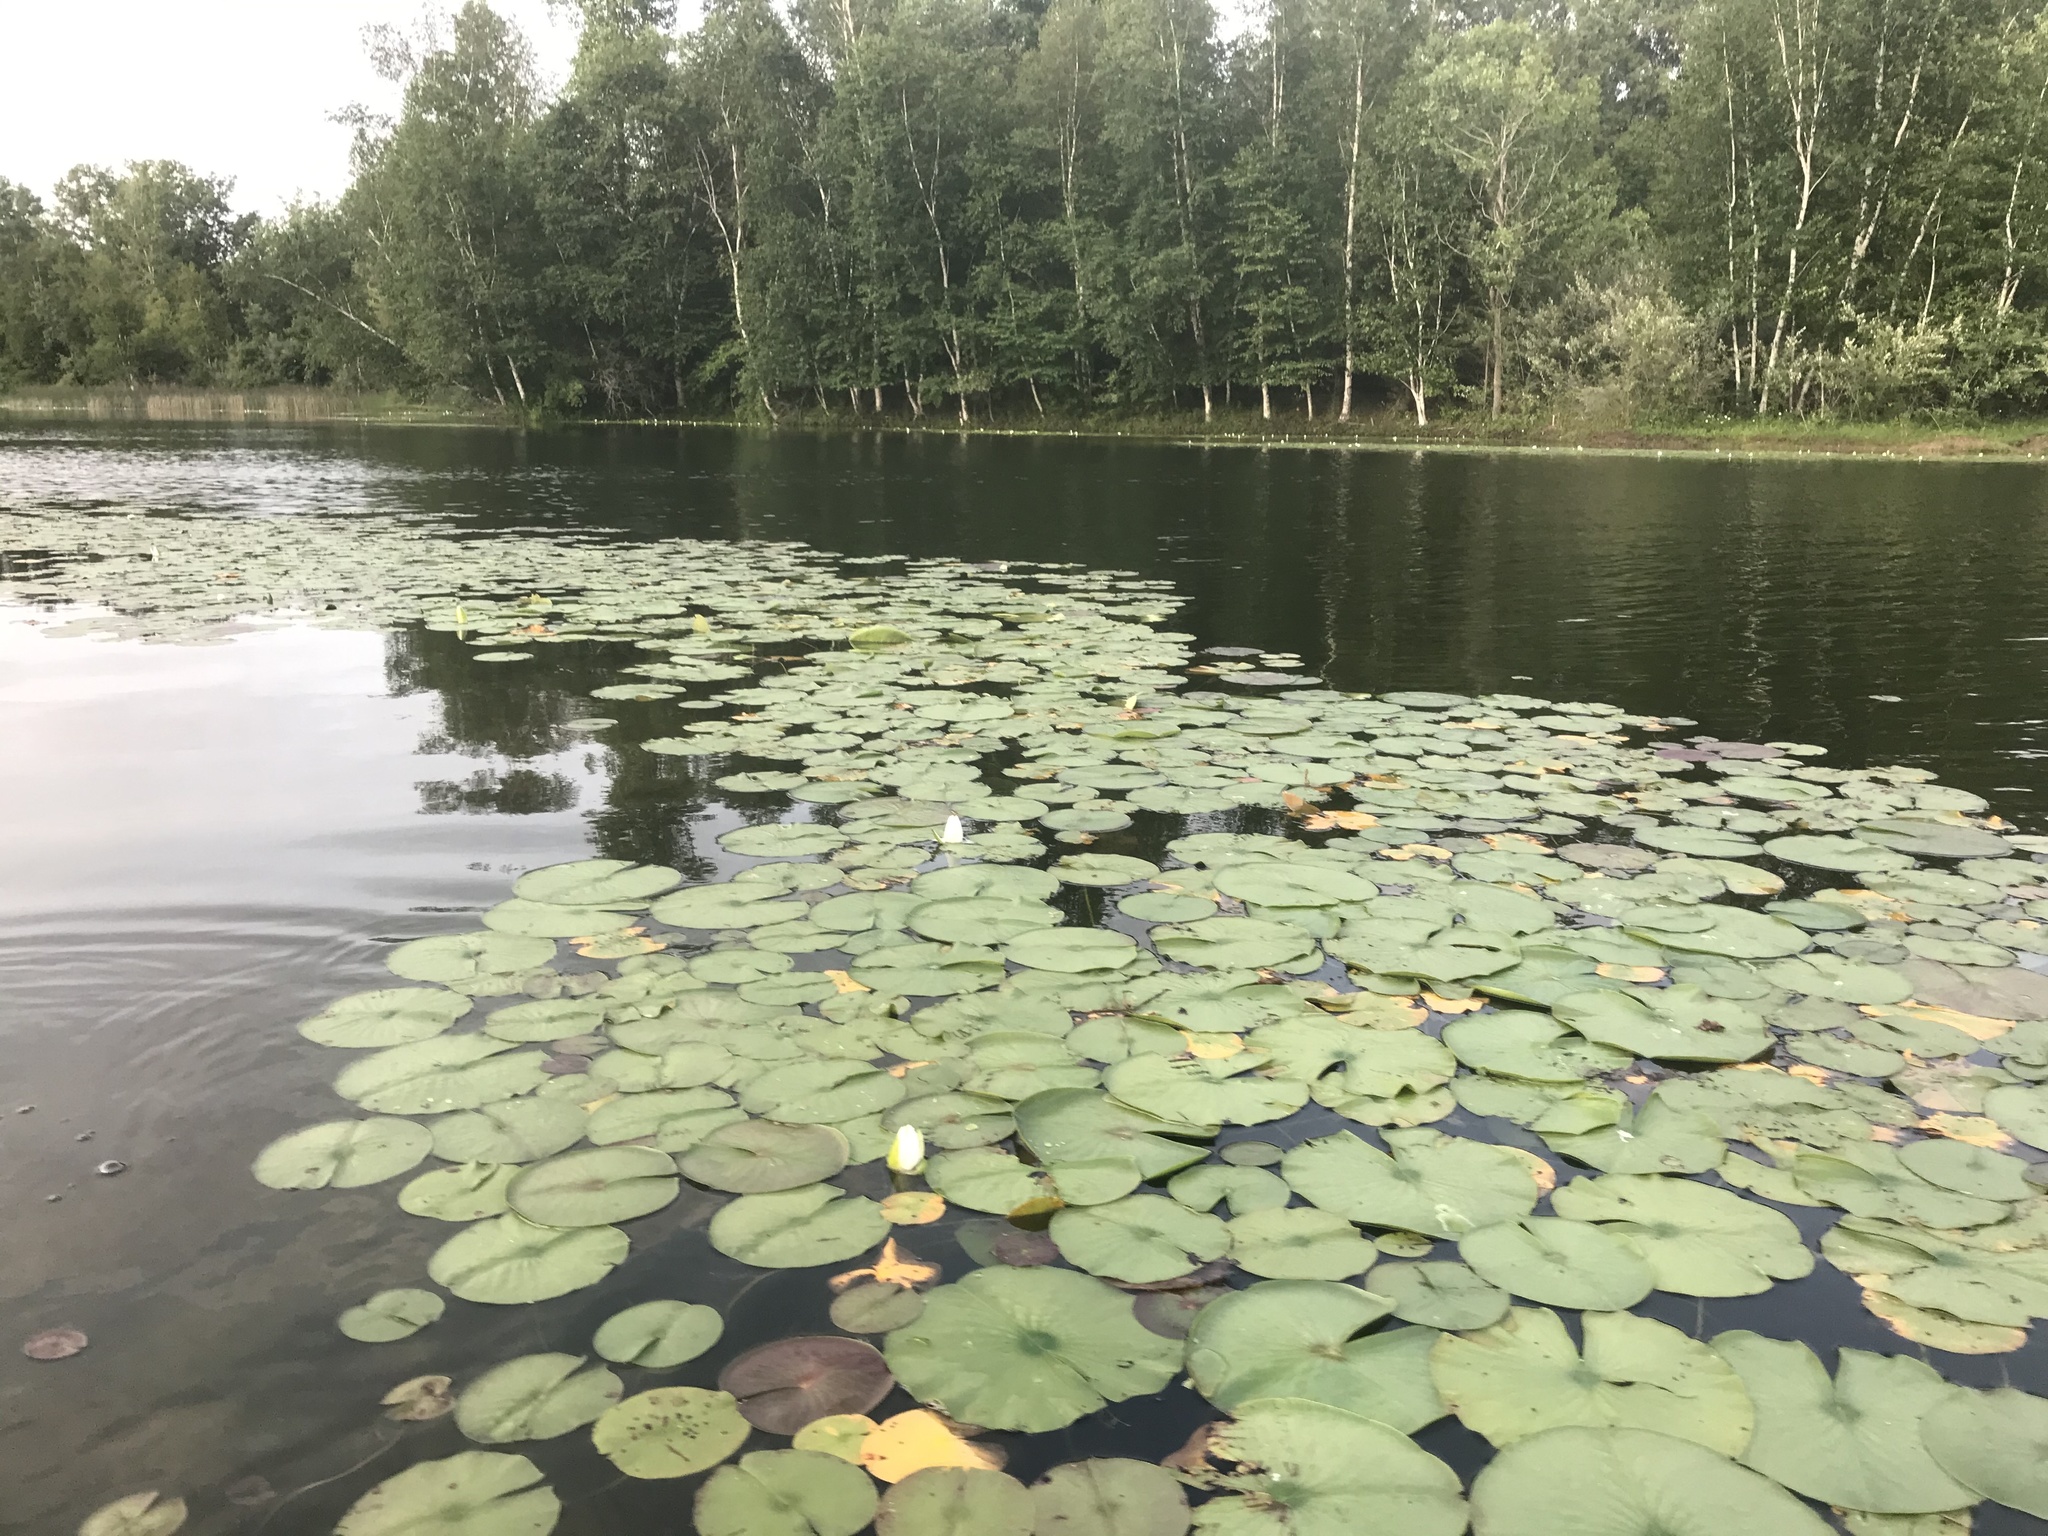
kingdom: Plantae
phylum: Tracheophyta
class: Magnoliopsida
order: Nymphaeales
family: Nymphaeaceae
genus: Nymphaea
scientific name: Nymphaea odorata
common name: Fragrant water-lily
